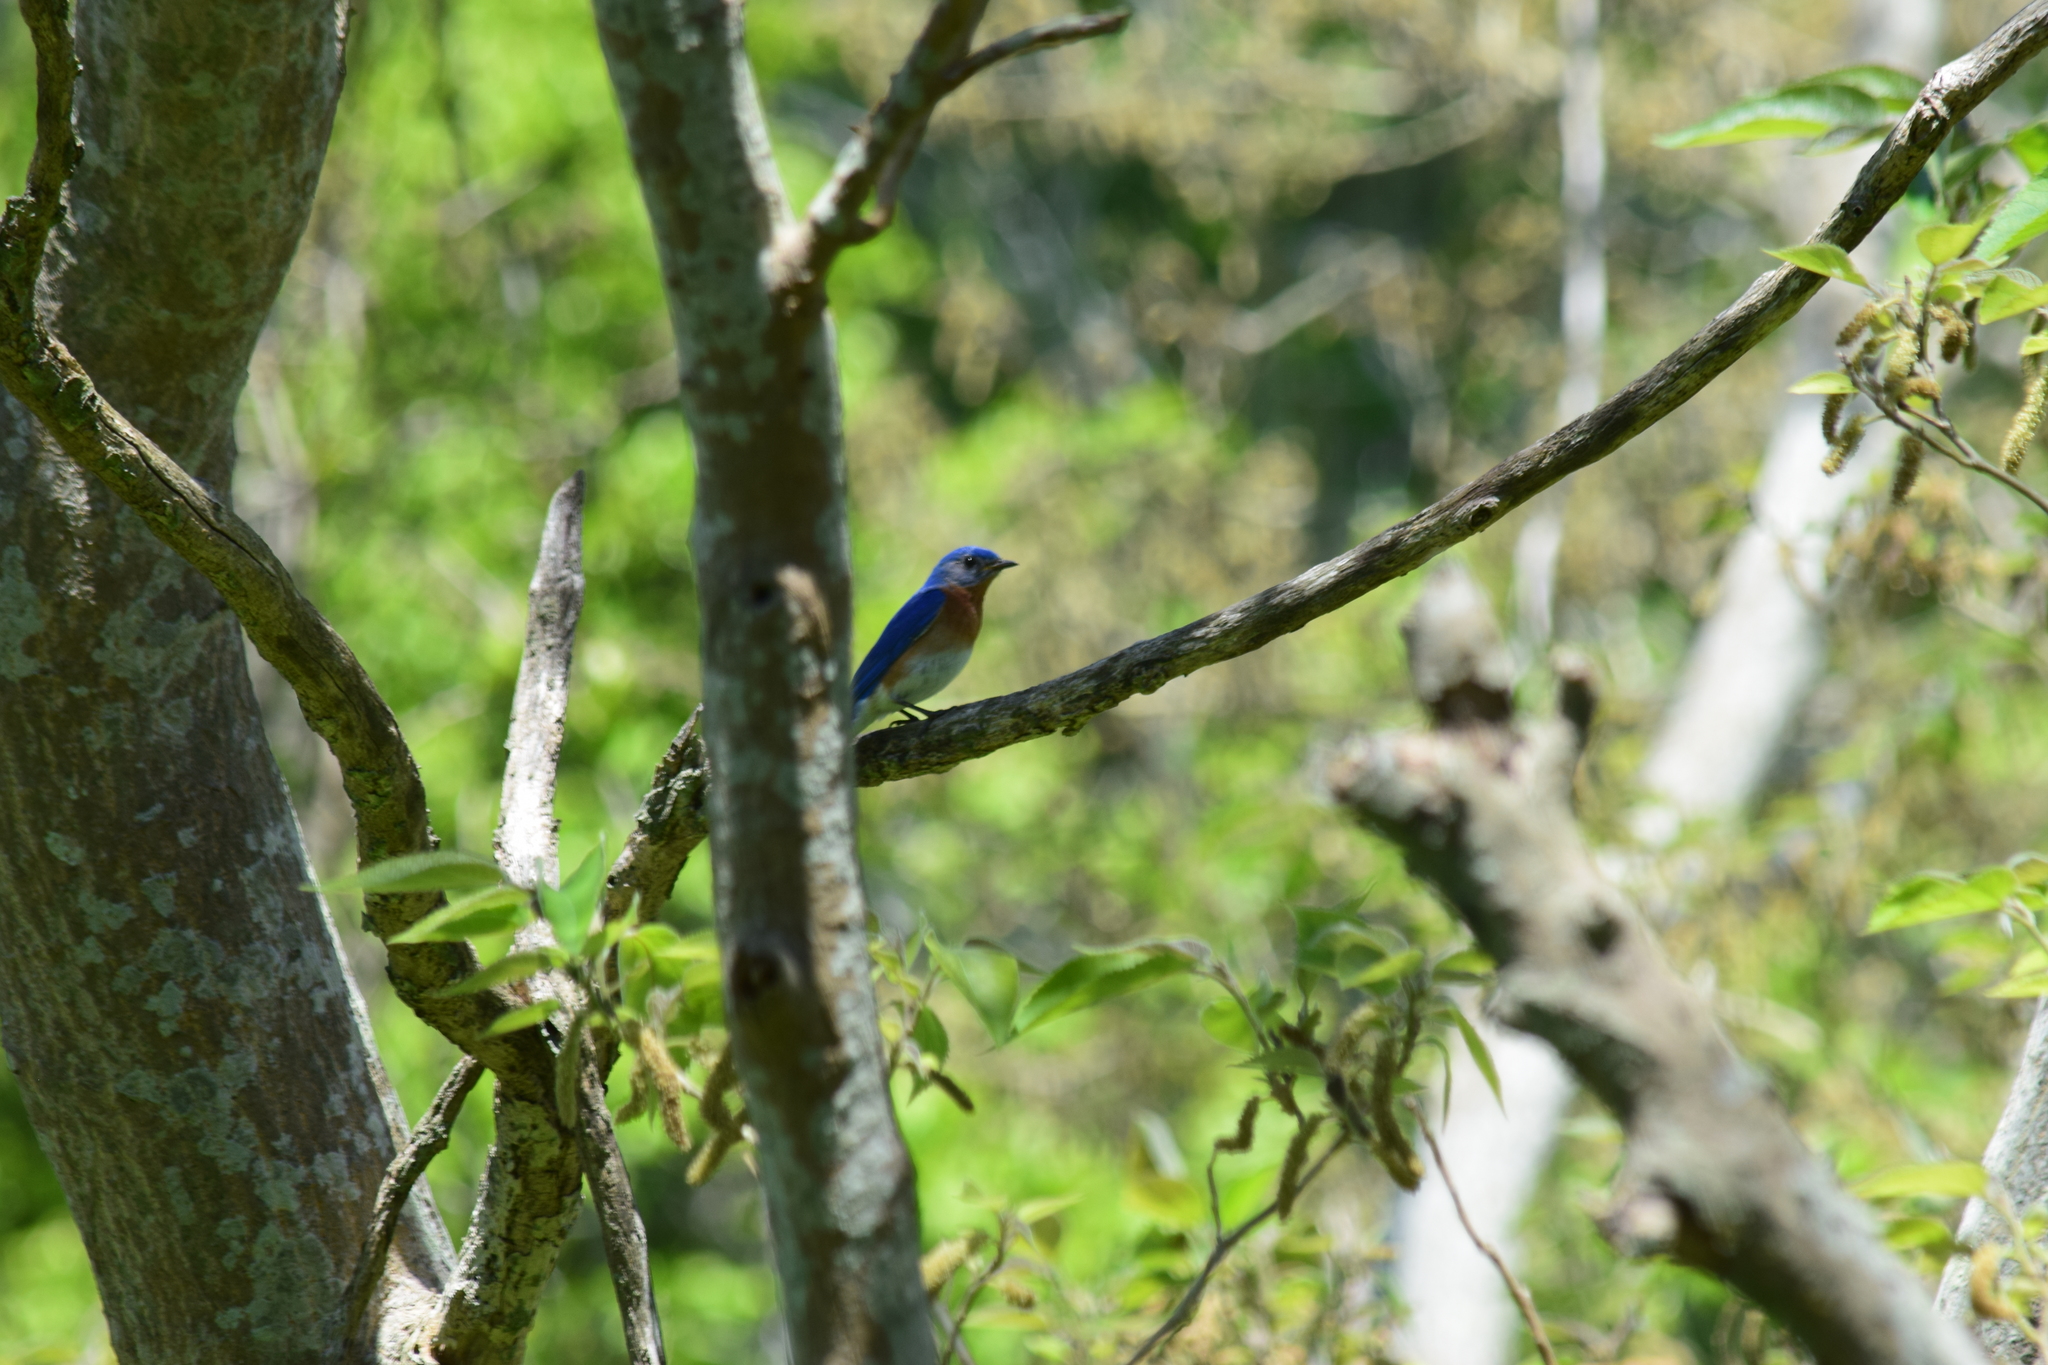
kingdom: Animalia
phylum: Chordata
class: Aves
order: Passeriformes
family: Turdidae
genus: Sialia
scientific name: Sialia sialis
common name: Eastern bluebird
